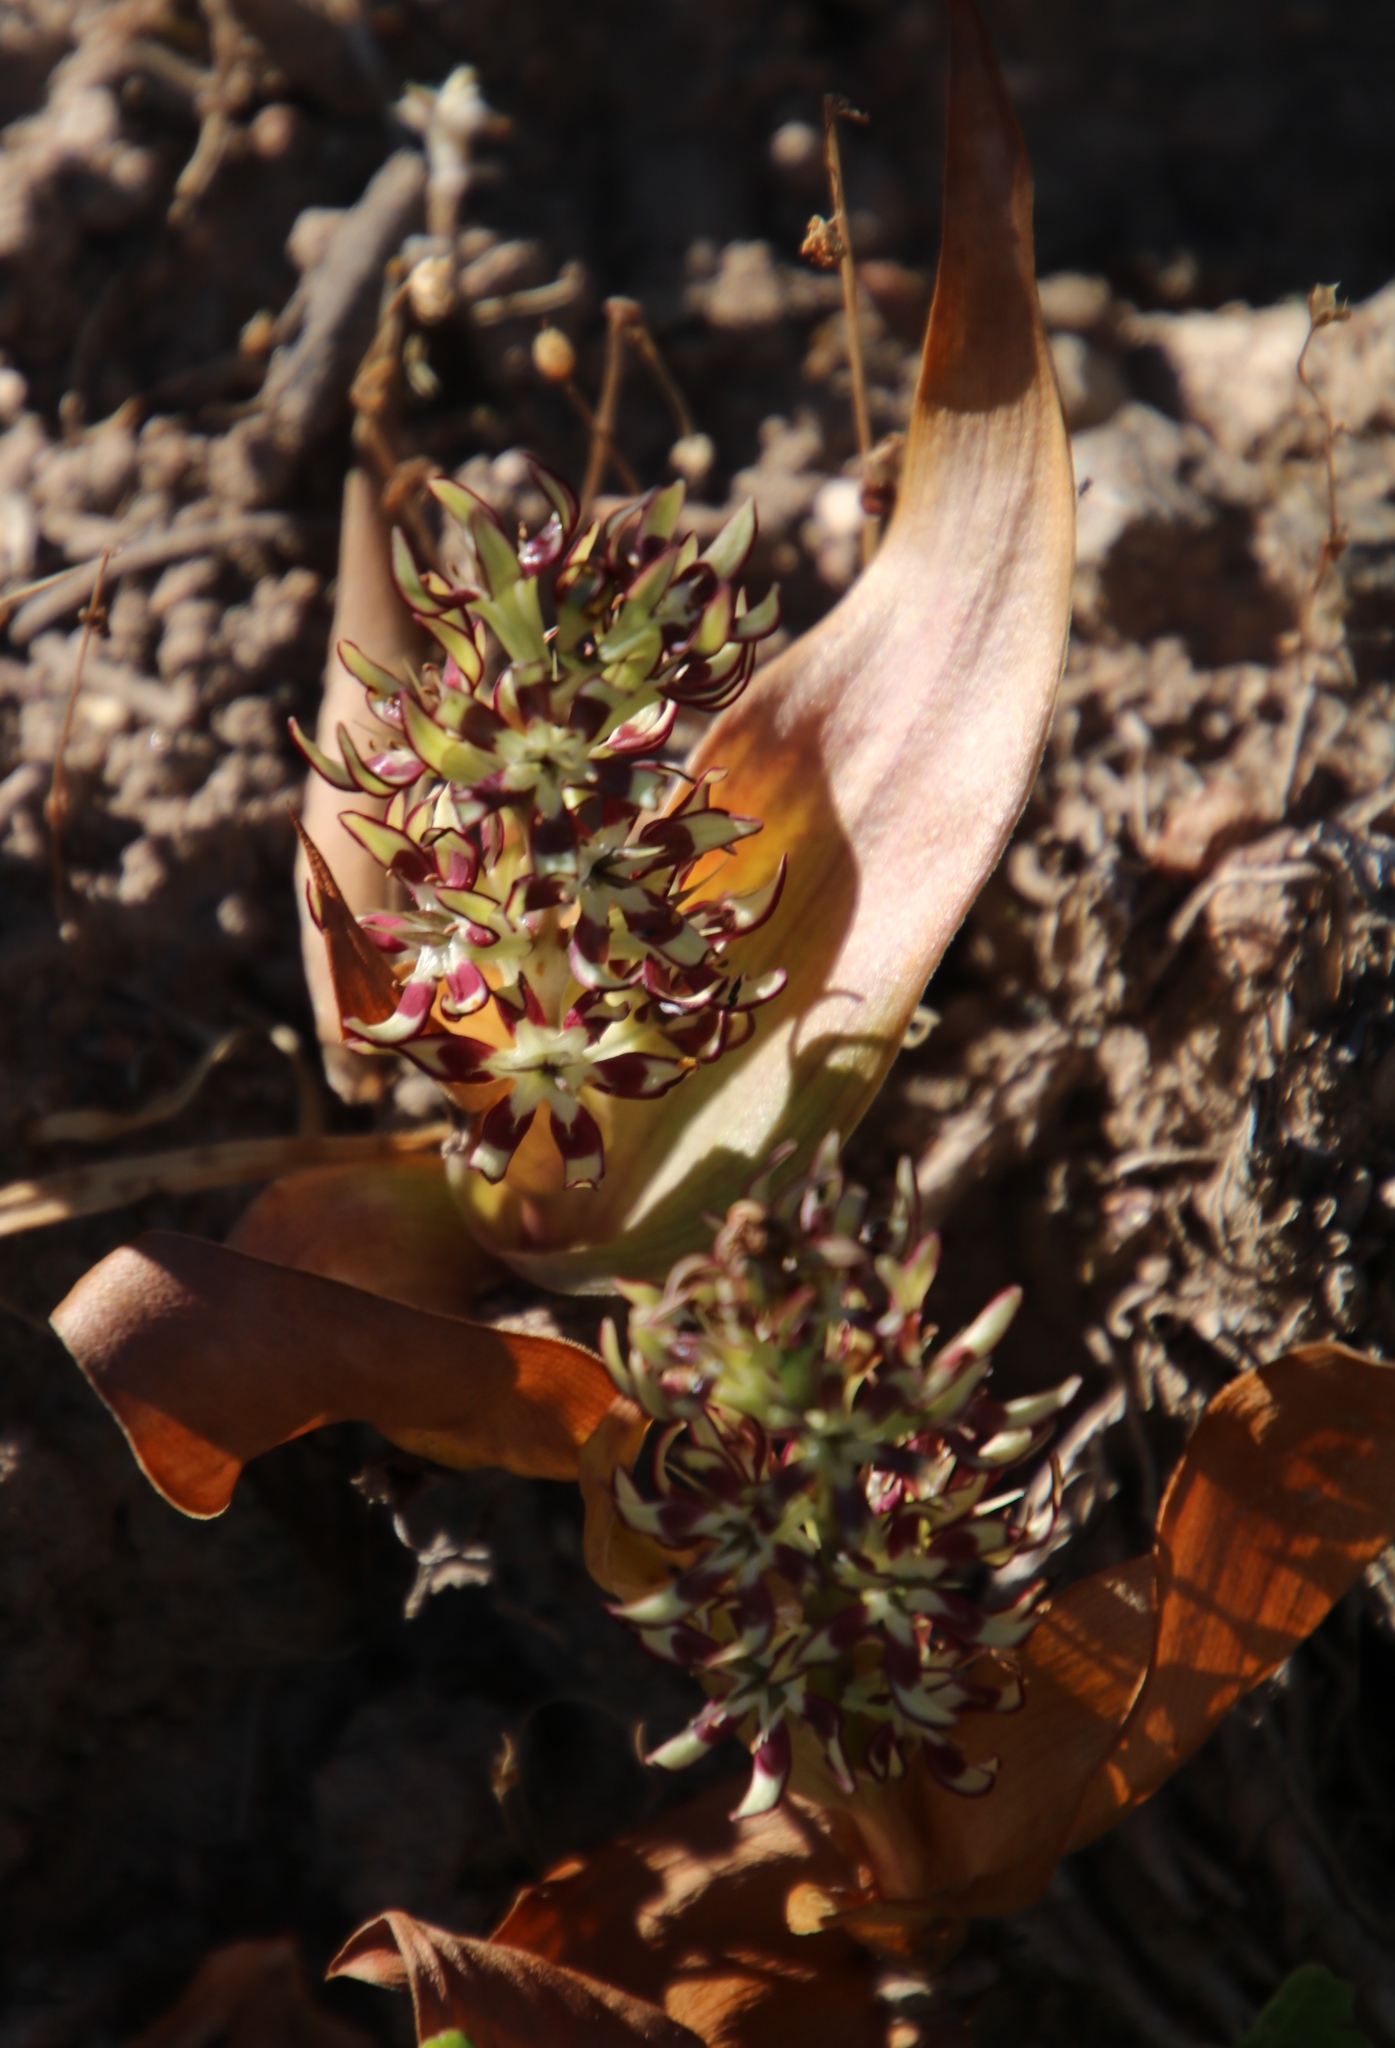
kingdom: Plantae
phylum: Tracheophyta
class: Liliopsida
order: Liliales
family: Colchicaceae
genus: Wurmbea
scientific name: Wurmbea variabilis
